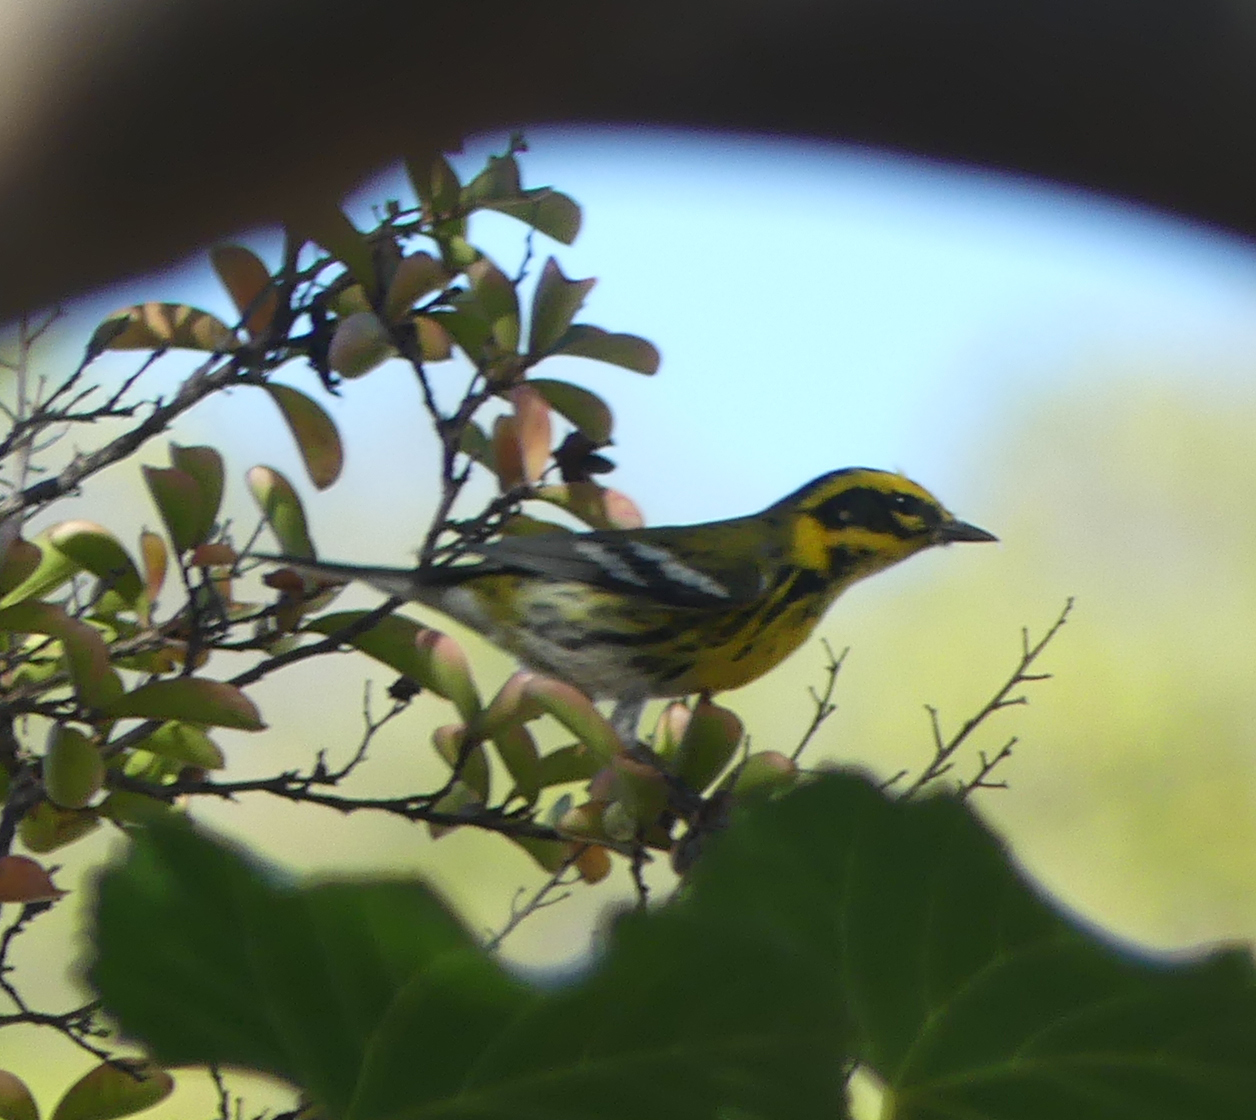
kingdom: Animalia
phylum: Chordata
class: Aves
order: Passeriformes
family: Parulidae
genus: Setophaga
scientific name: Setophaga townsendi
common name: Townsend's warbler
